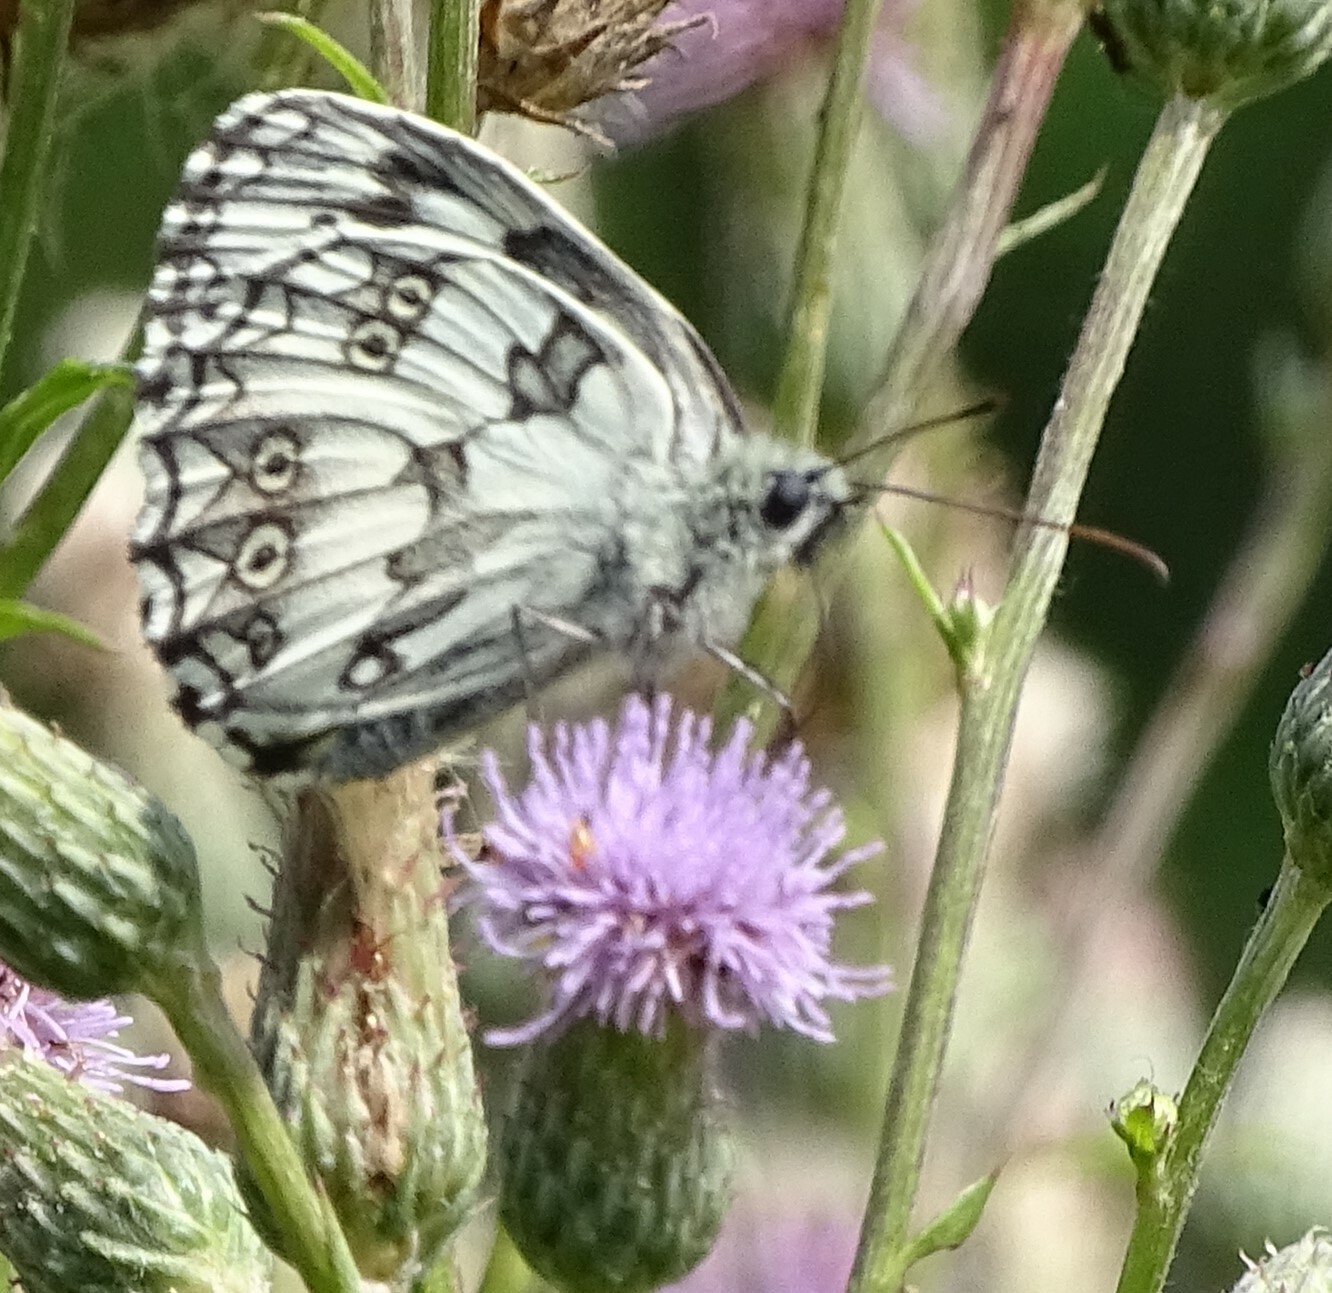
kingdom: Animalia
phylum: Arthropoda
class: Insecta
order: Lepidoptera
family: Nymphalidae
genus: Melanargia
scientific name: Melanargia galathea
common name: Marbled white
